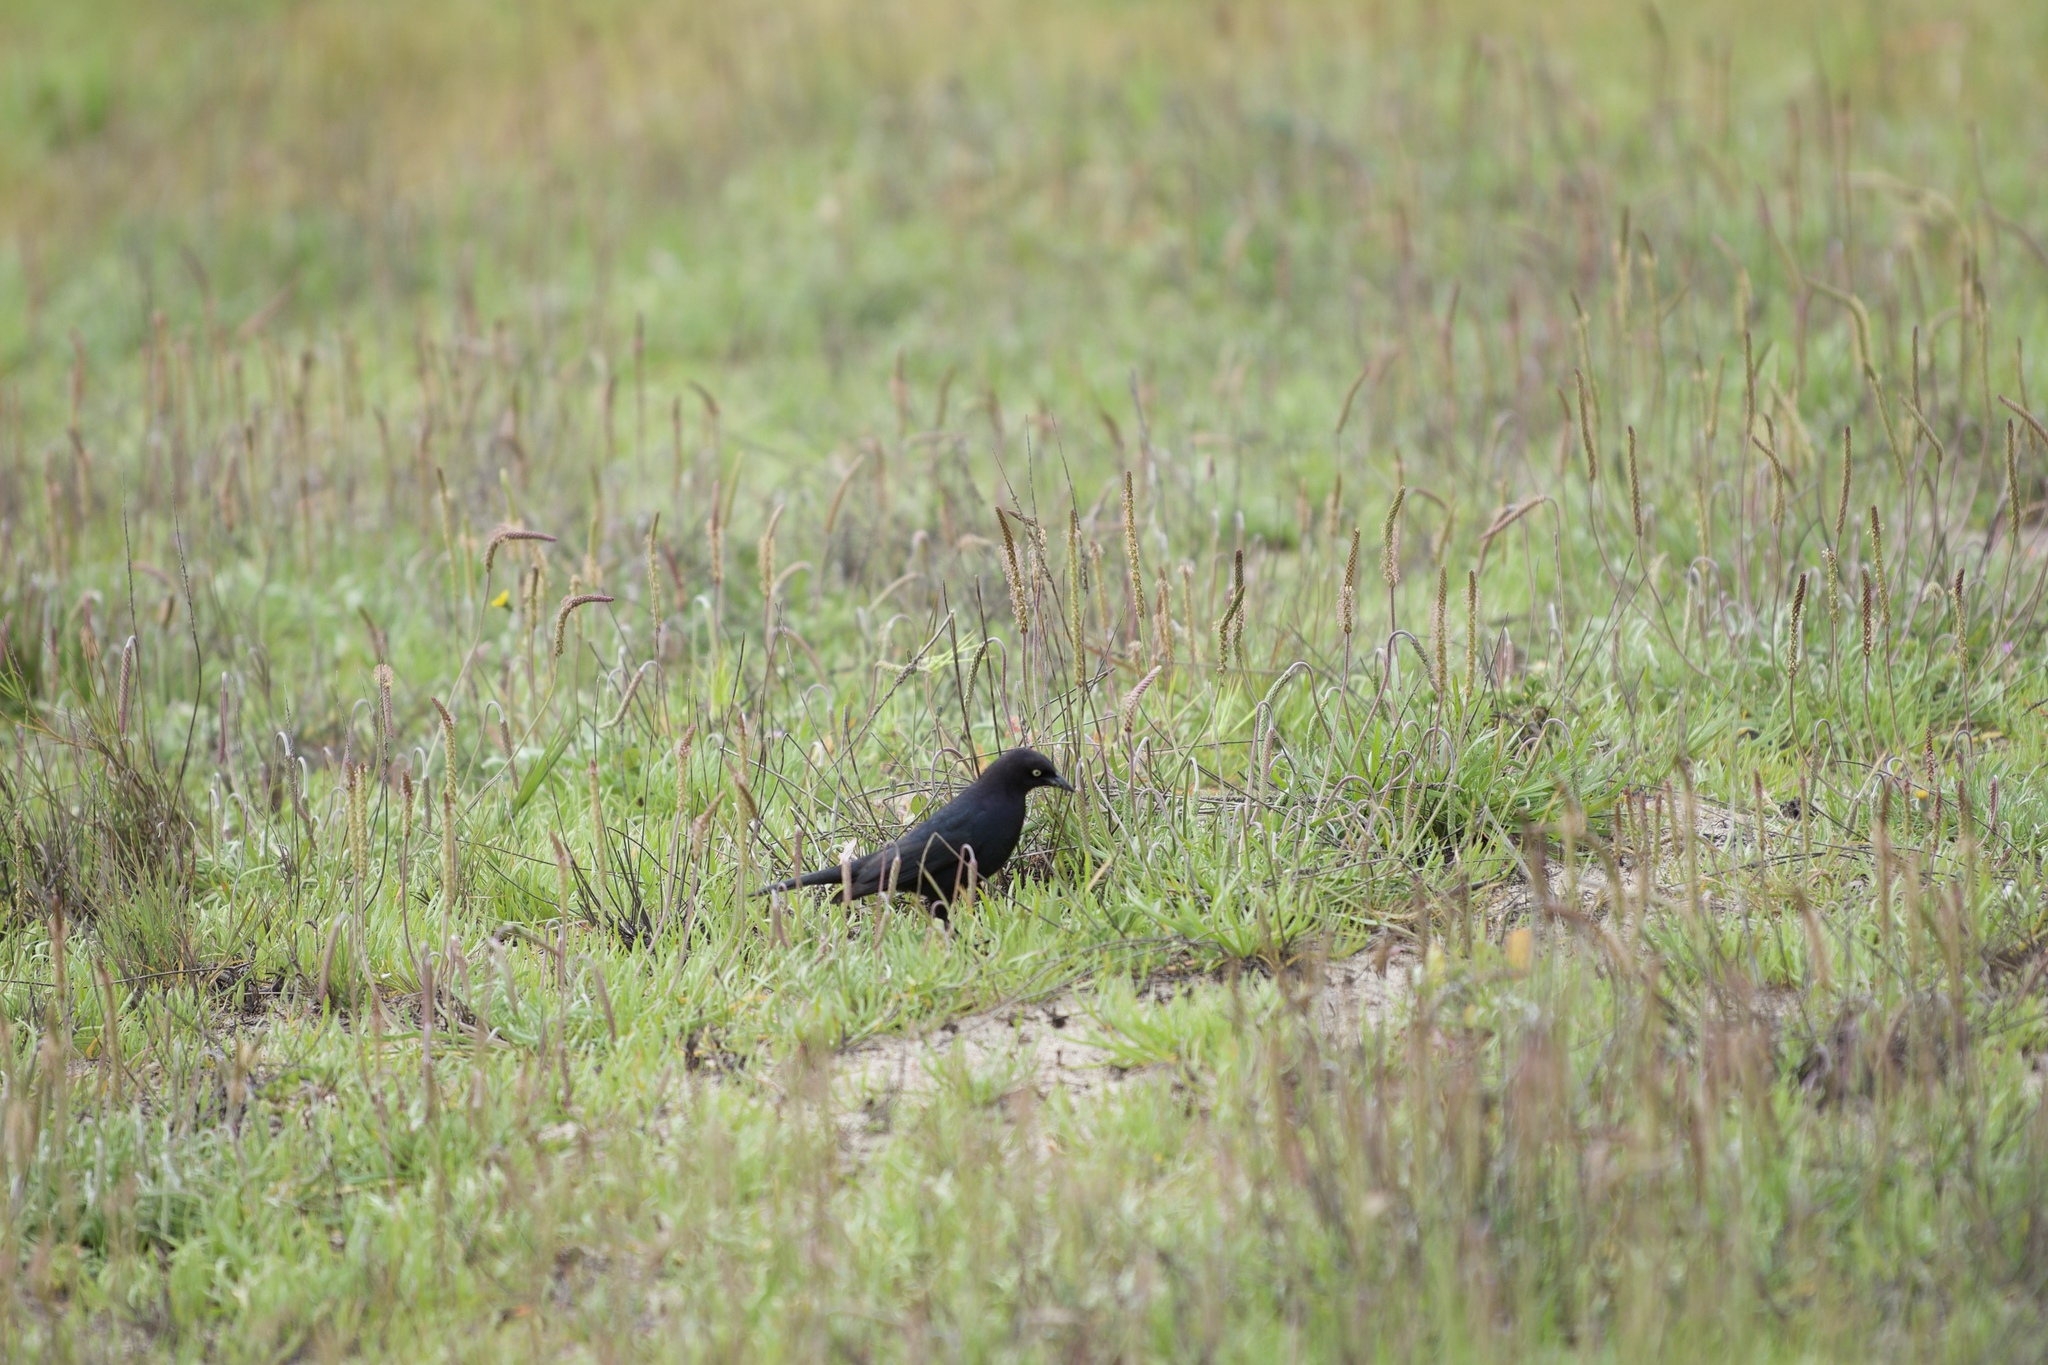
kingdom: Animalia
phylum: Chordata
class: Aves
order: Passeriformes
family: Icteridae
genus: Euphagus
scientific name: Euphagus cyanocephalus
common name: Brewer's blackbird
